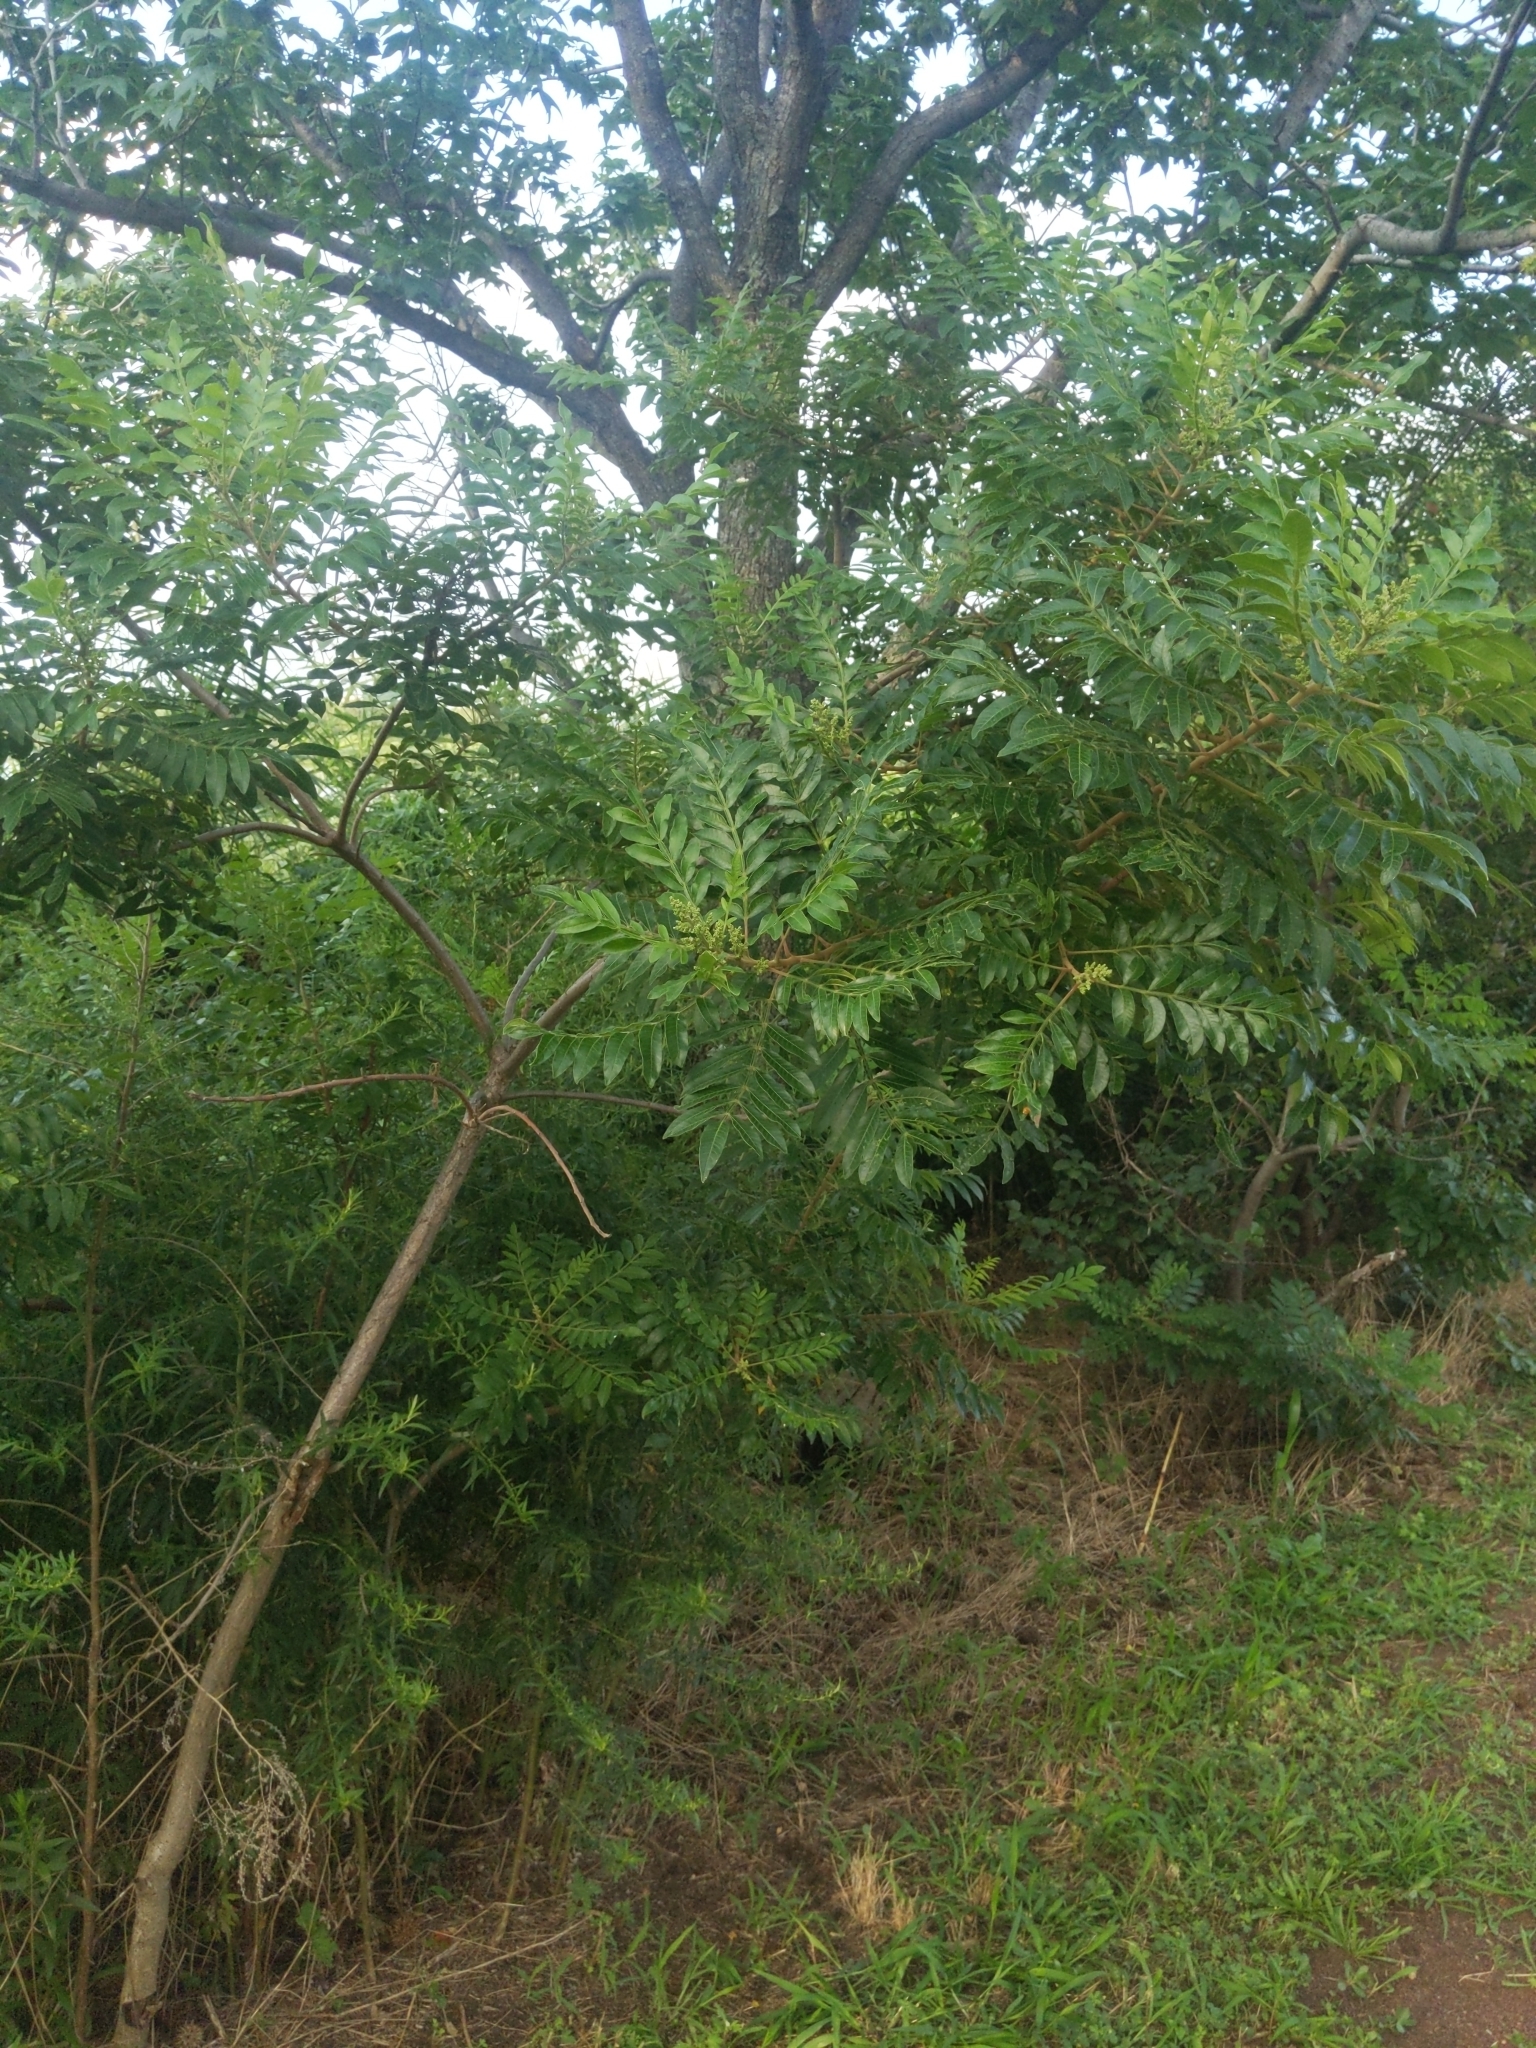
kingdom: Plantae
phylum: Tracheophyta
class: Magnoliopsida
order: Sapindales
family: Anacardiaceae
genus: Rhus
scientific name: Rhus copallina
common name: Shining sumac
